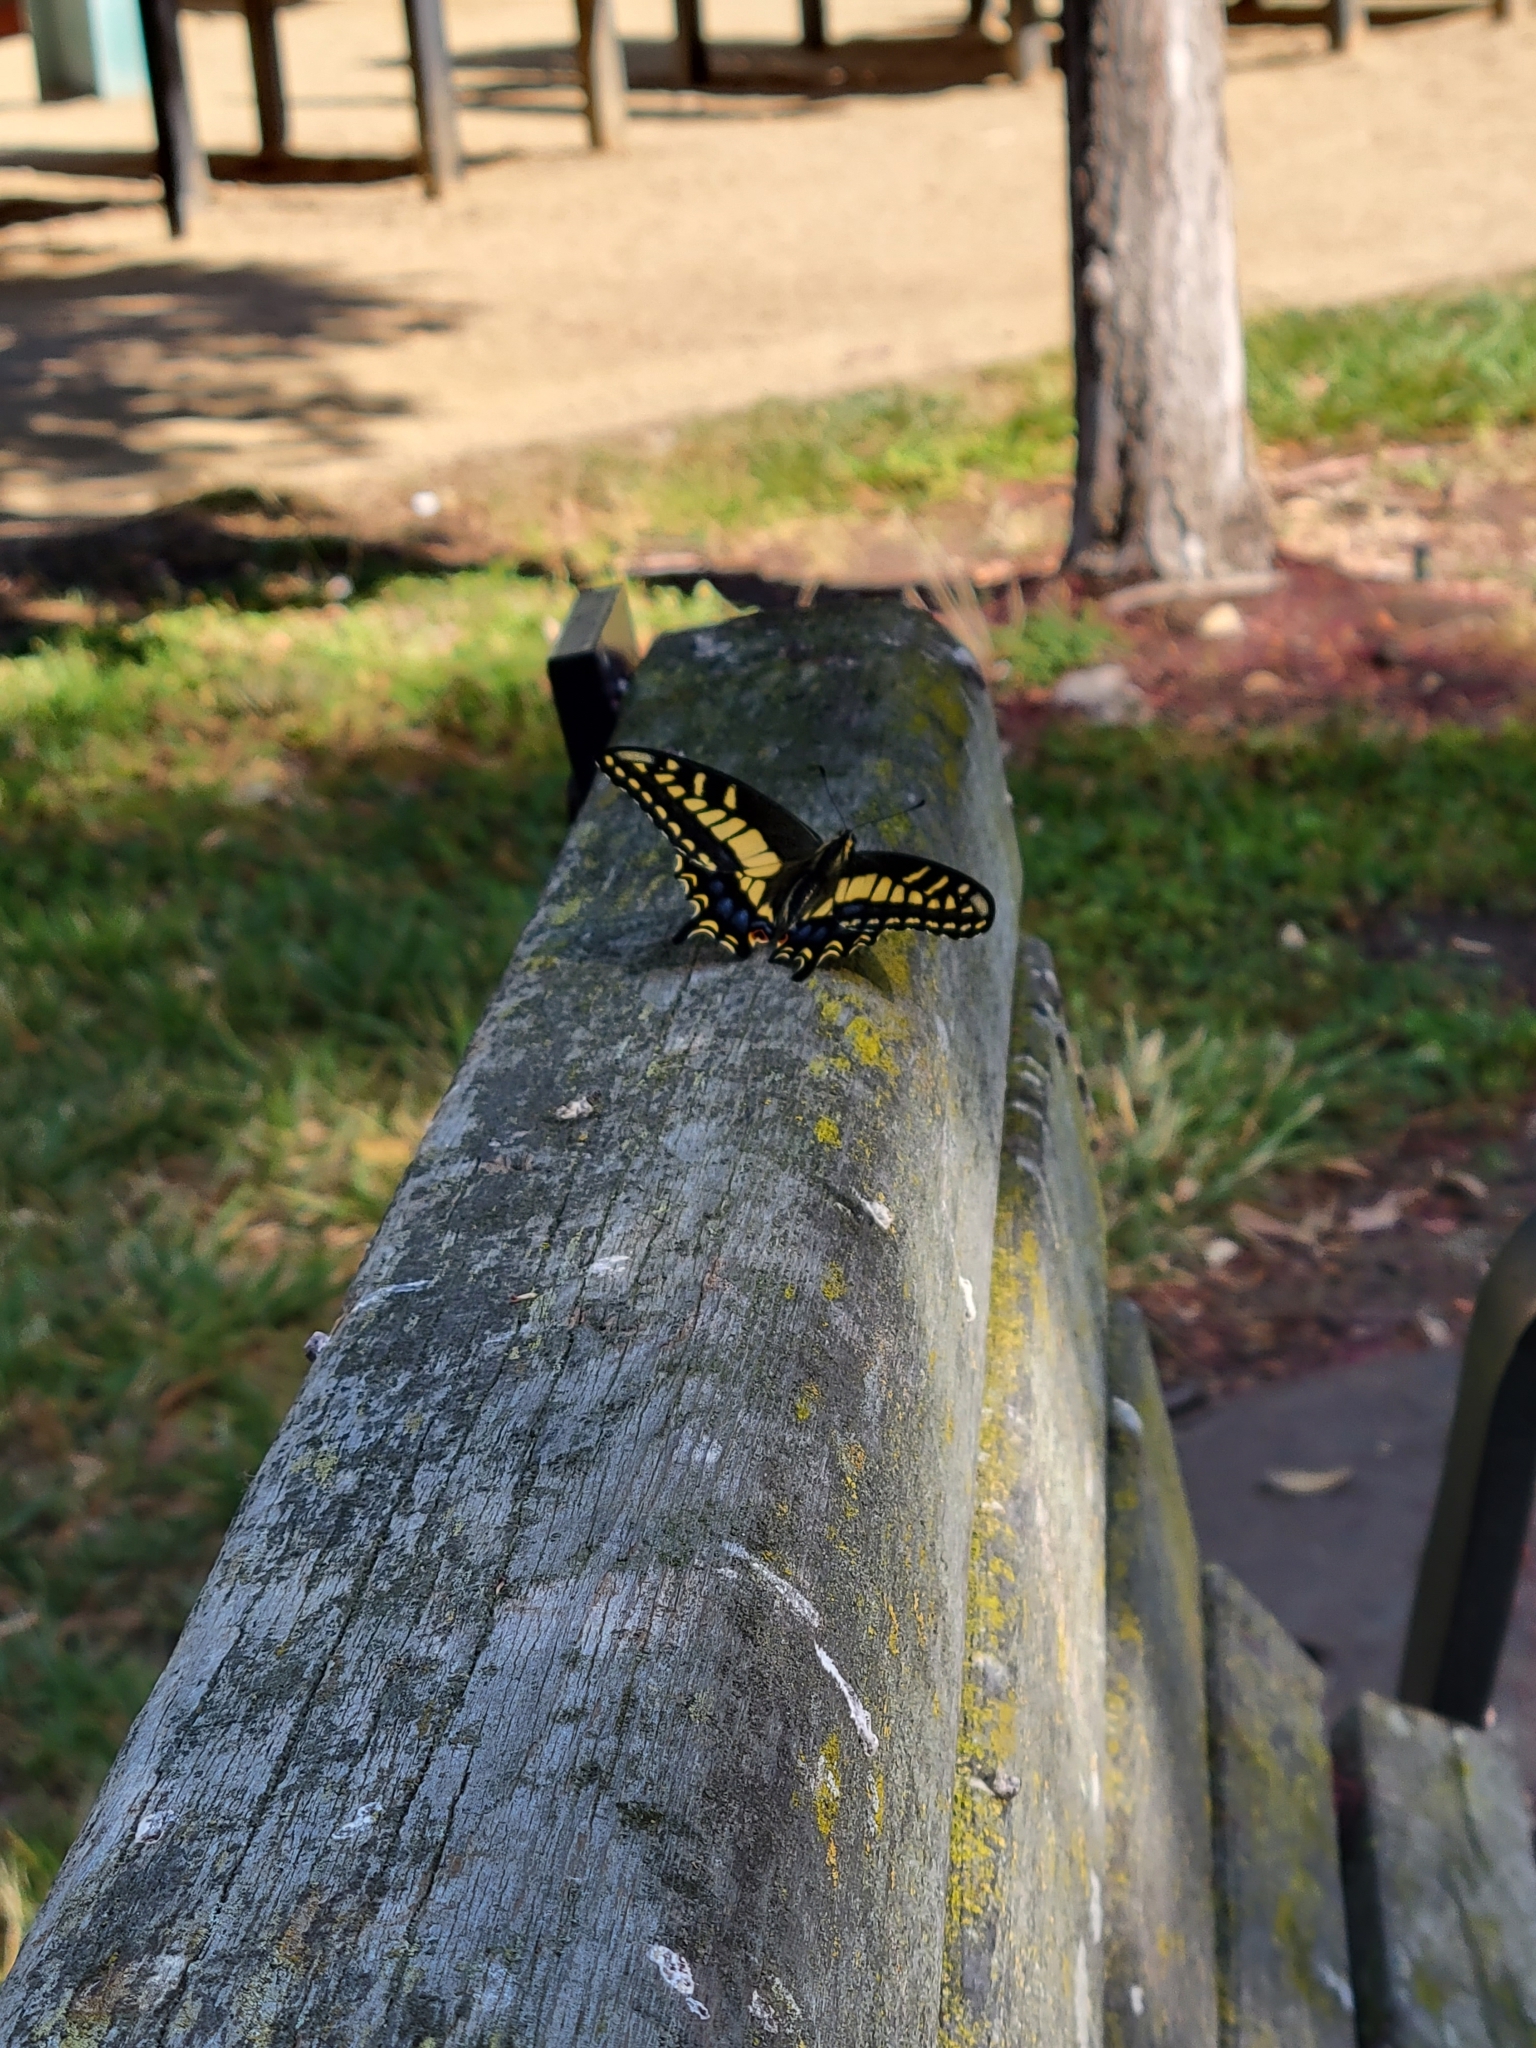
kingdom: Animalia
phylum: Arthropoda
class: Insecta
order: Lepidoptera
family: Papilionidae
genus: Papilio
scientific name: Papilio zelicaon
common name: Anise swallowtail
